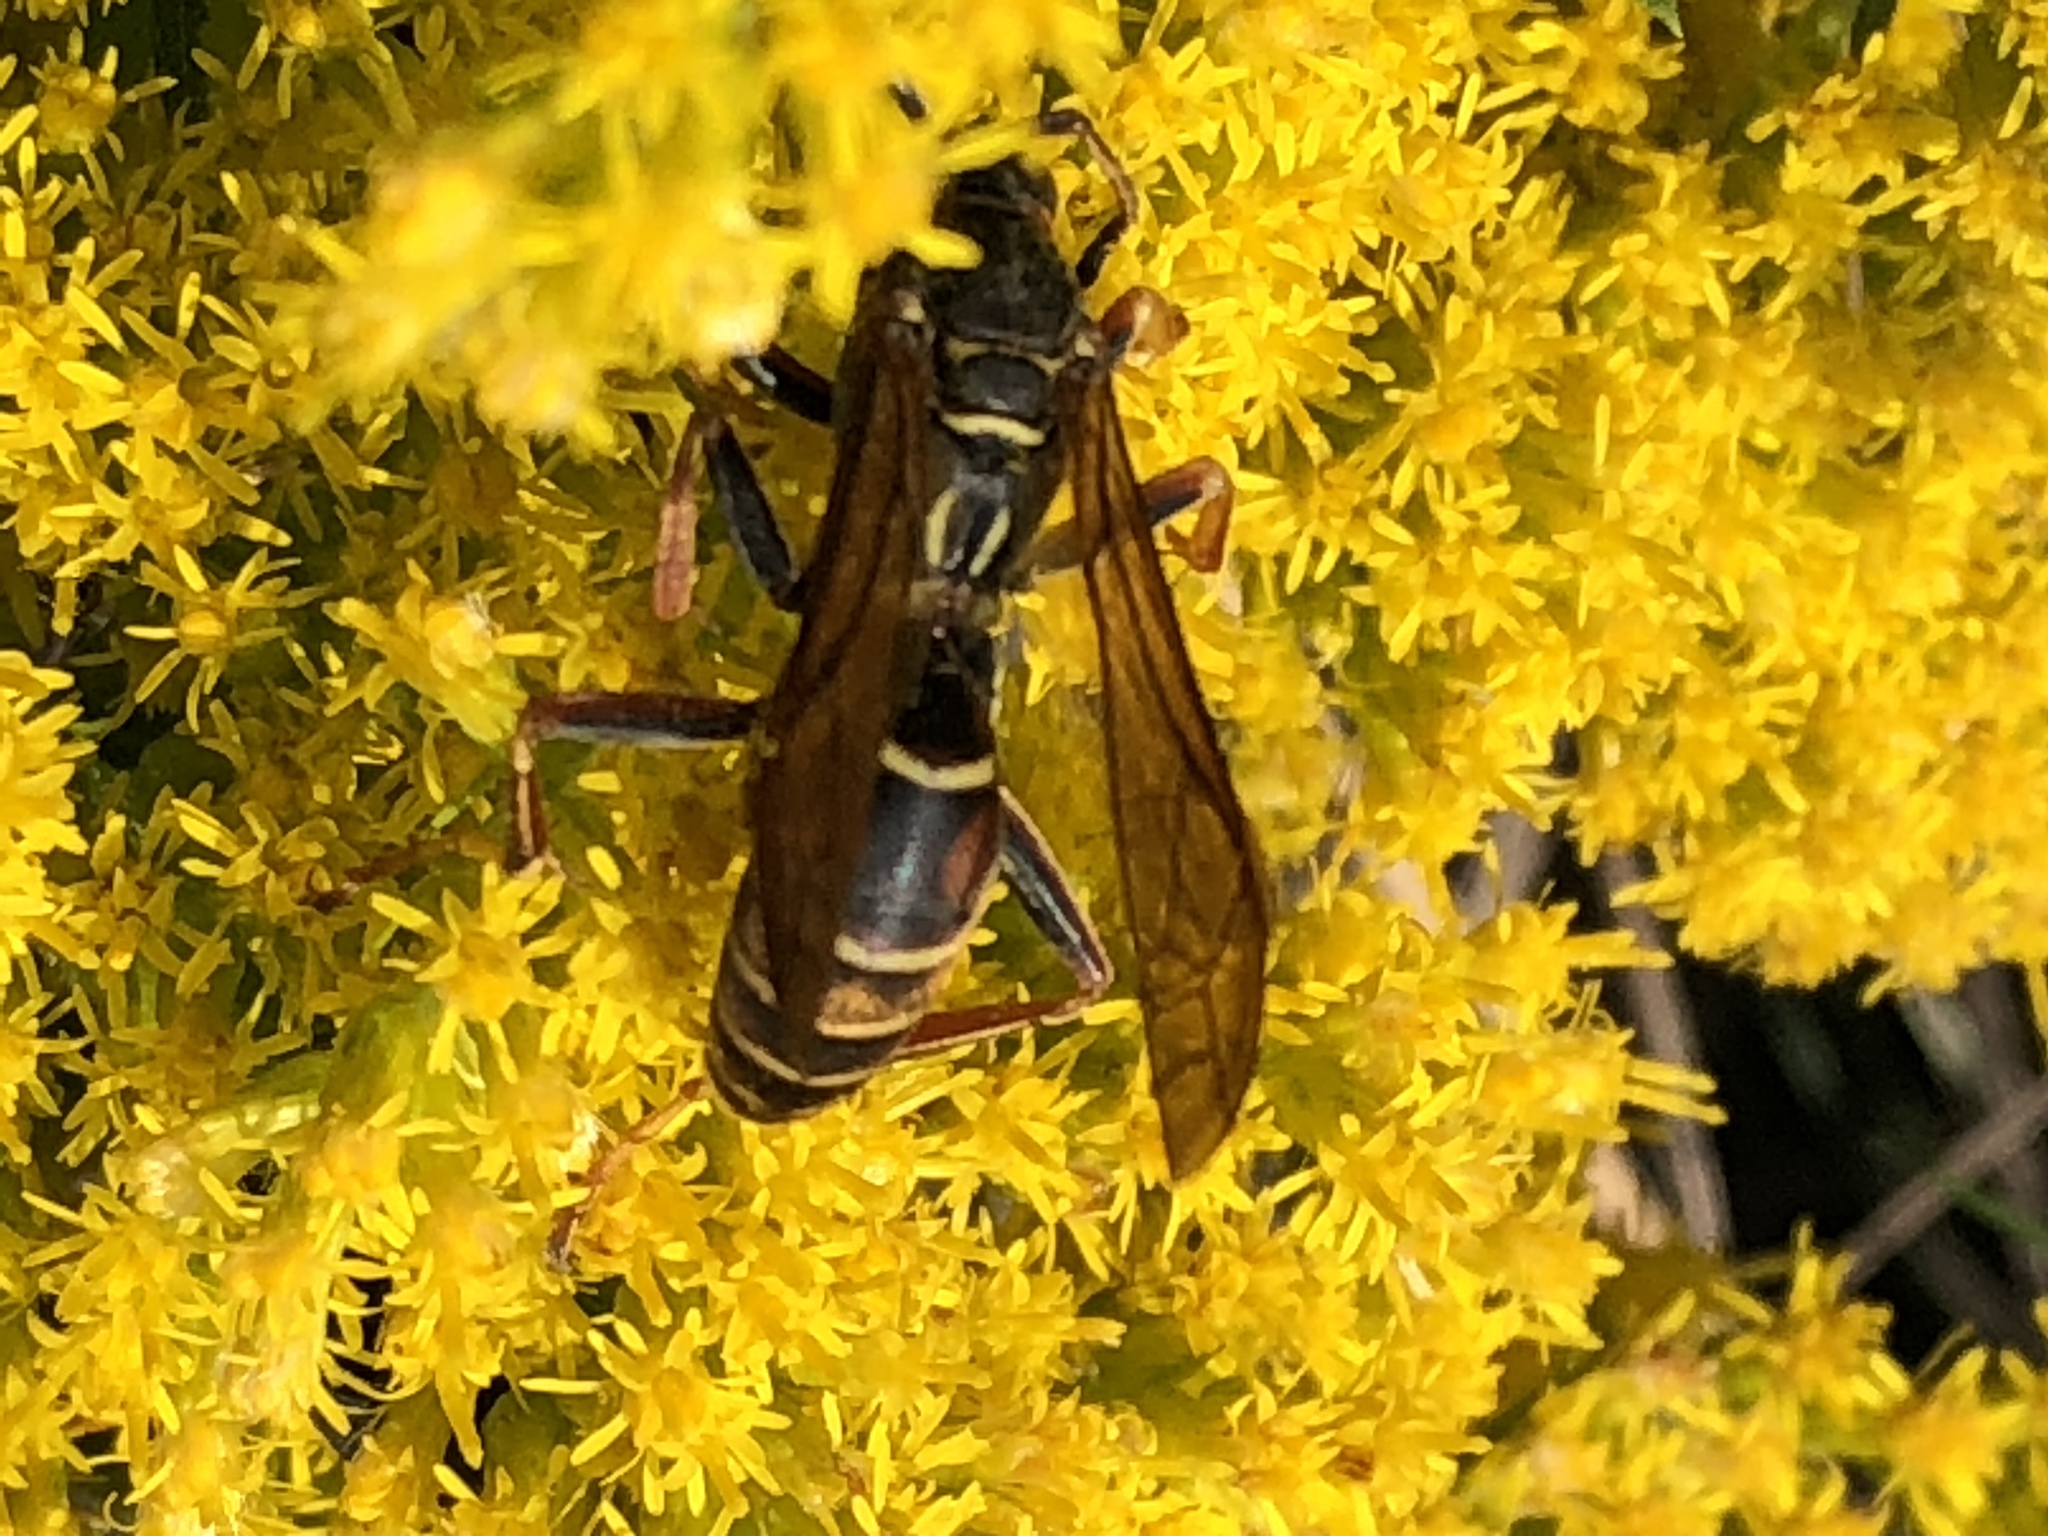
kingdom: Animalia
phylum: Arthropoda
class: Insecta
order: Hymenoptera
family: Eumenidae
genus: Polistes
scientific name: Polistes fuscatus
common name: Dark paper wasp
